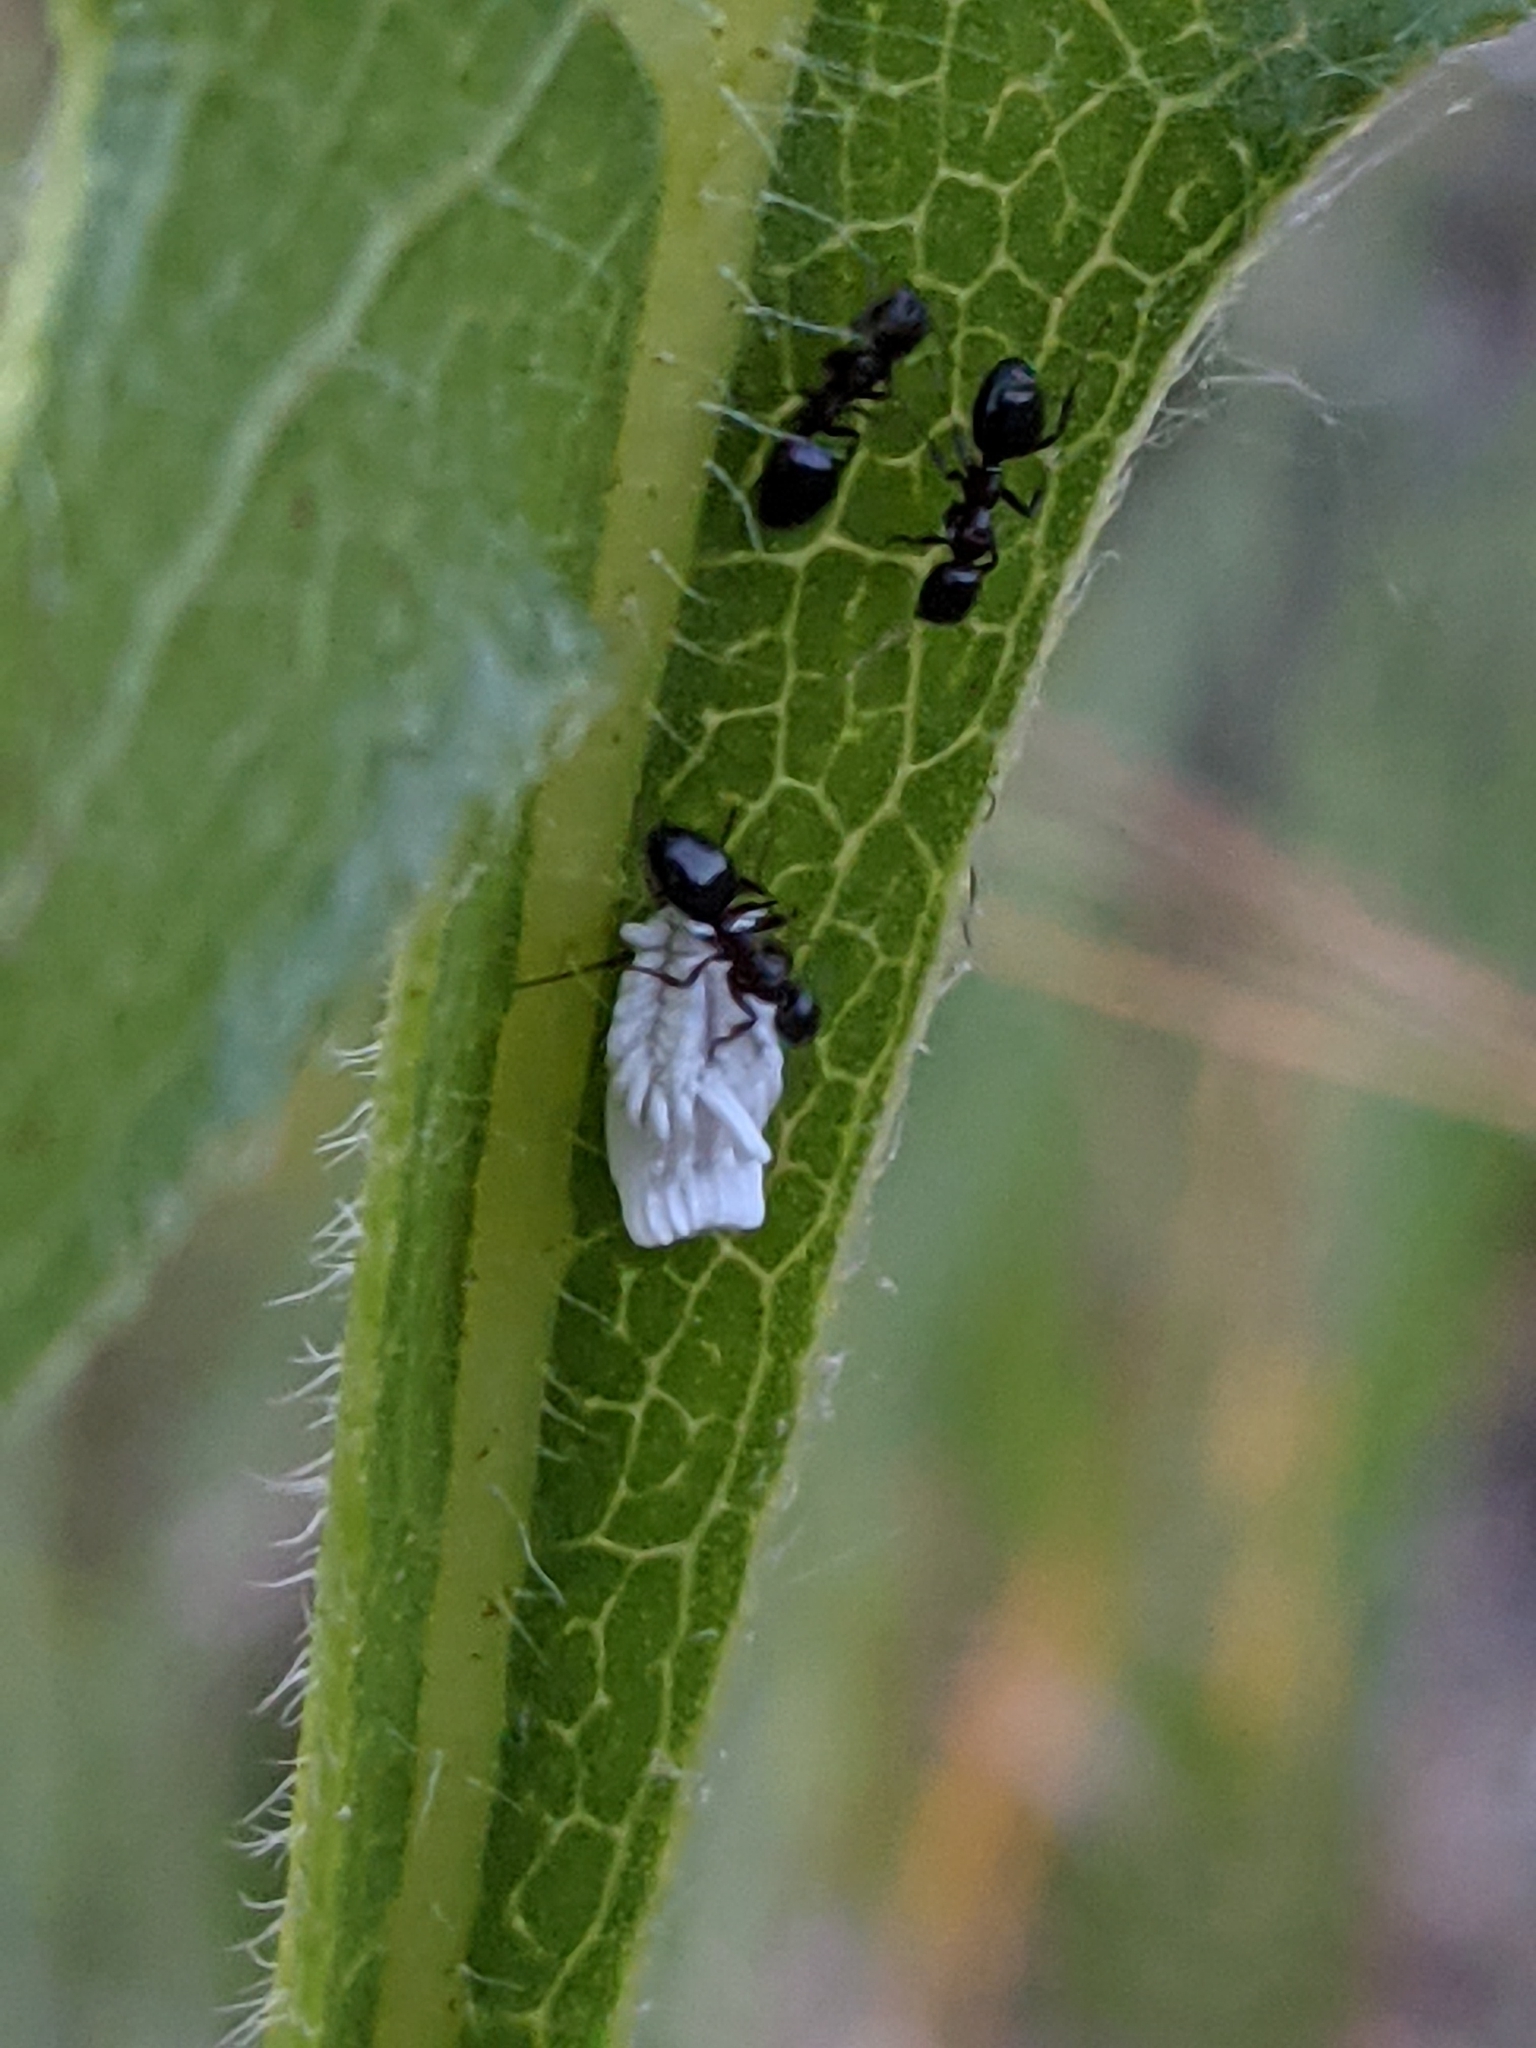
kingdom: Animalia
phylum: Arthropoda
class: Insecta
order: Hymenoptera
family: Formicidae
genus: Dolichoderus
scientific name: Dolichoderus taschenbergi
